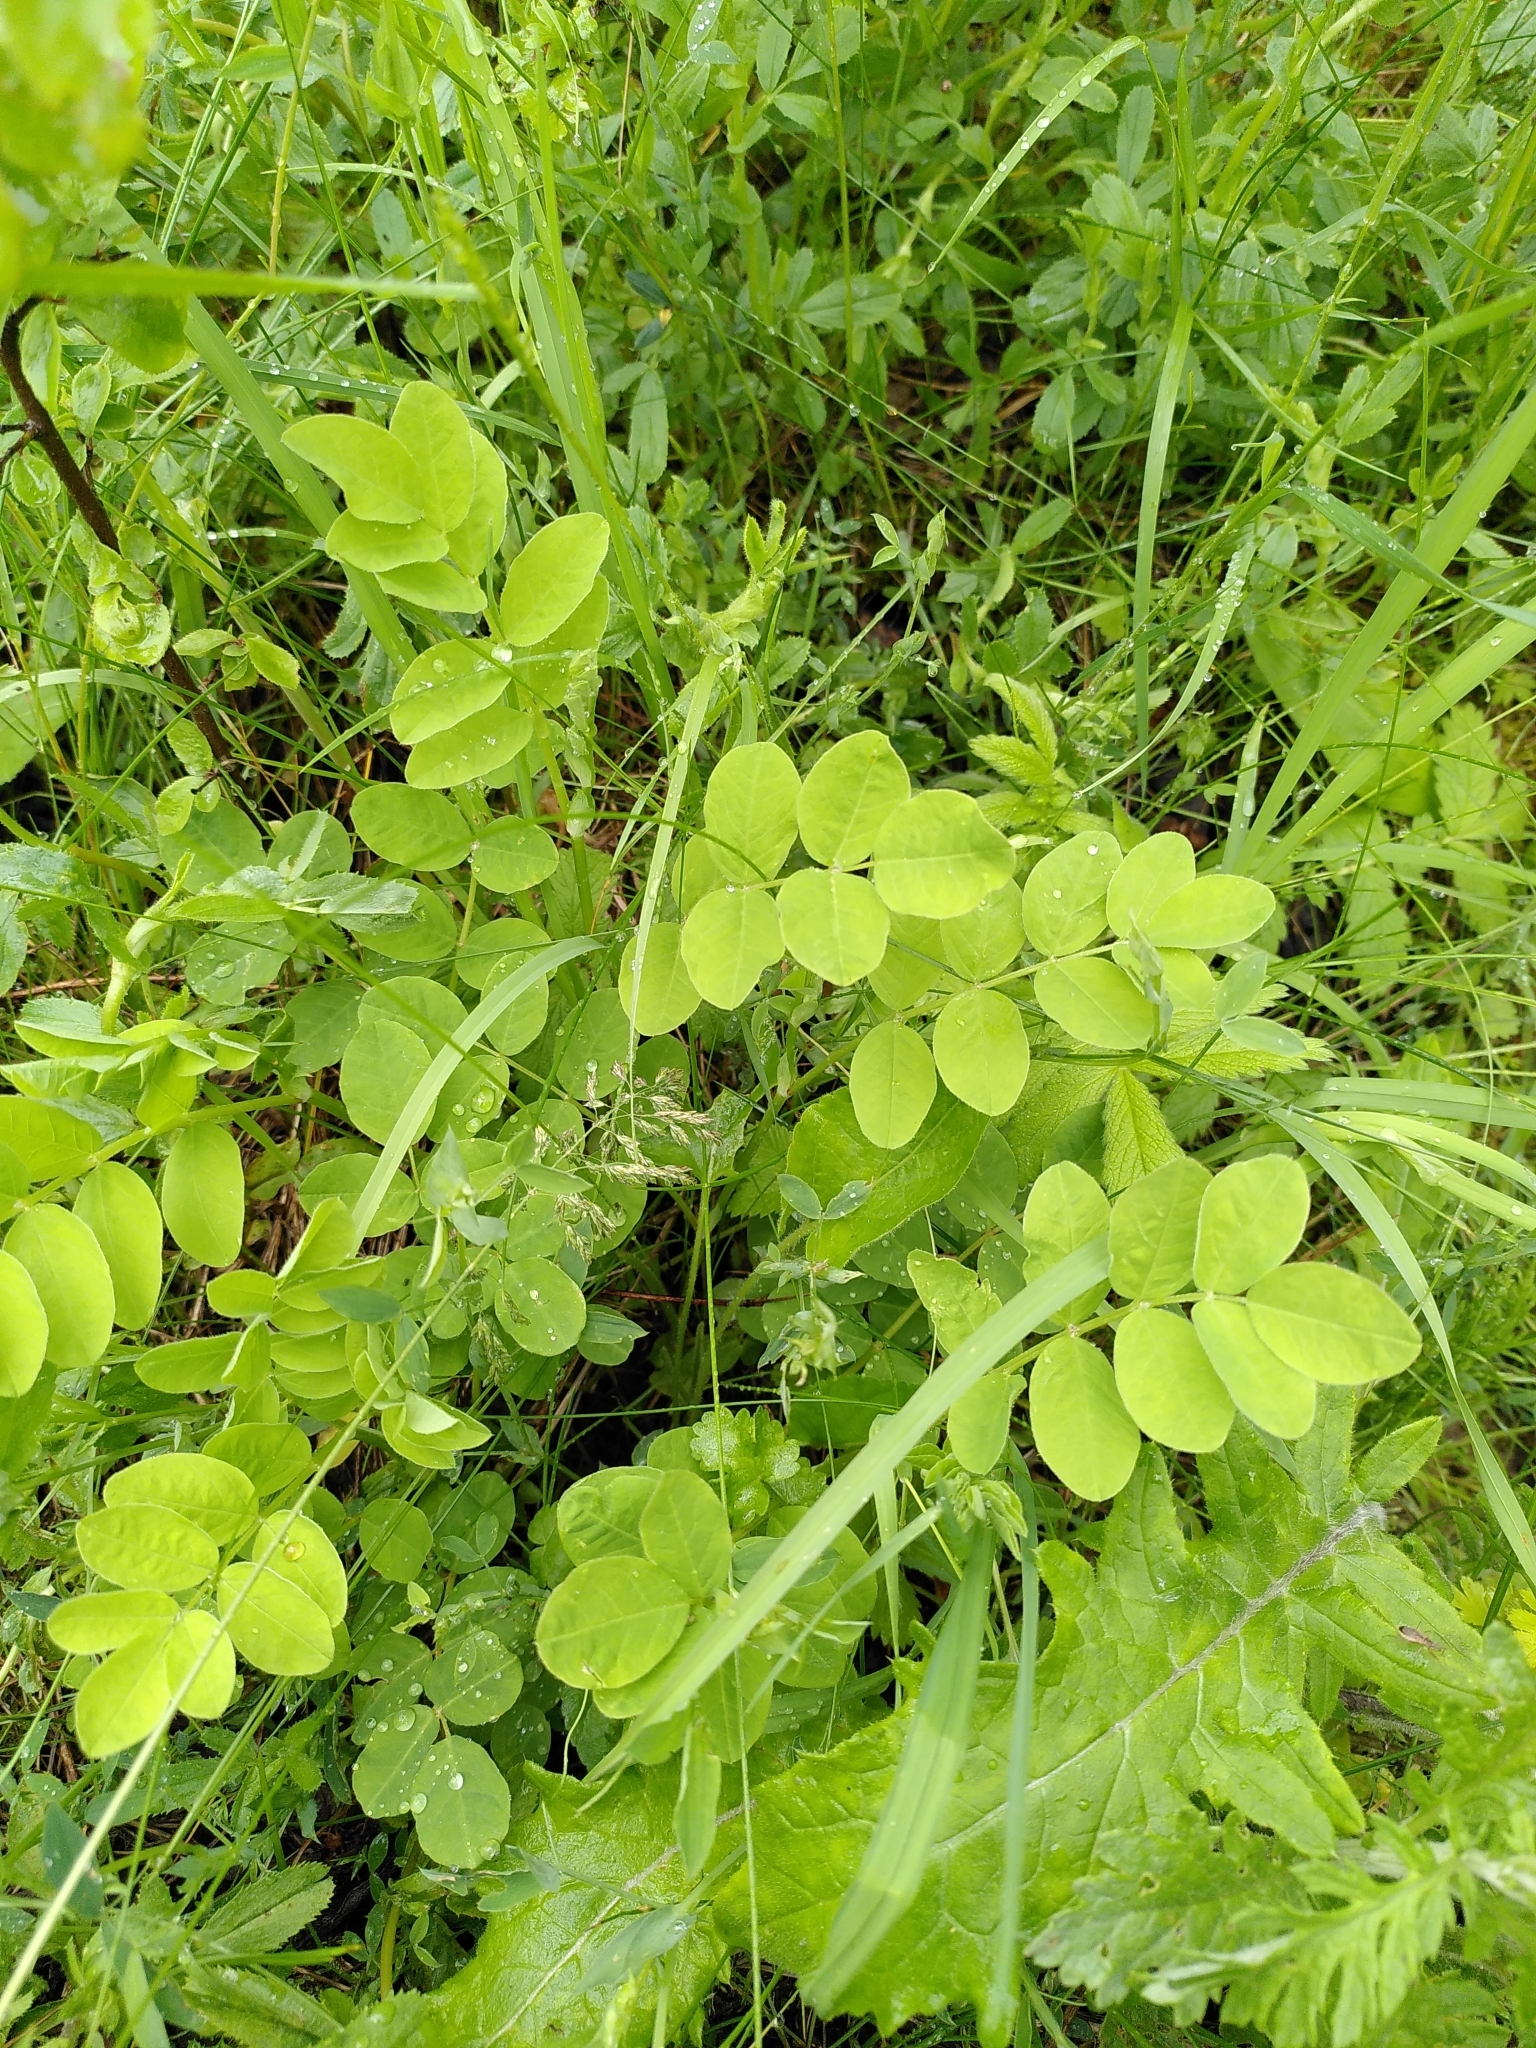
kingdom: Plantae
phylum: Tracheophyta
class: Magnoliopsida
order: Fabales
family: Fabaceae
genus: Astragalus
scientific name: Astragalus glycyphyllos
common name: Wild liquorice
